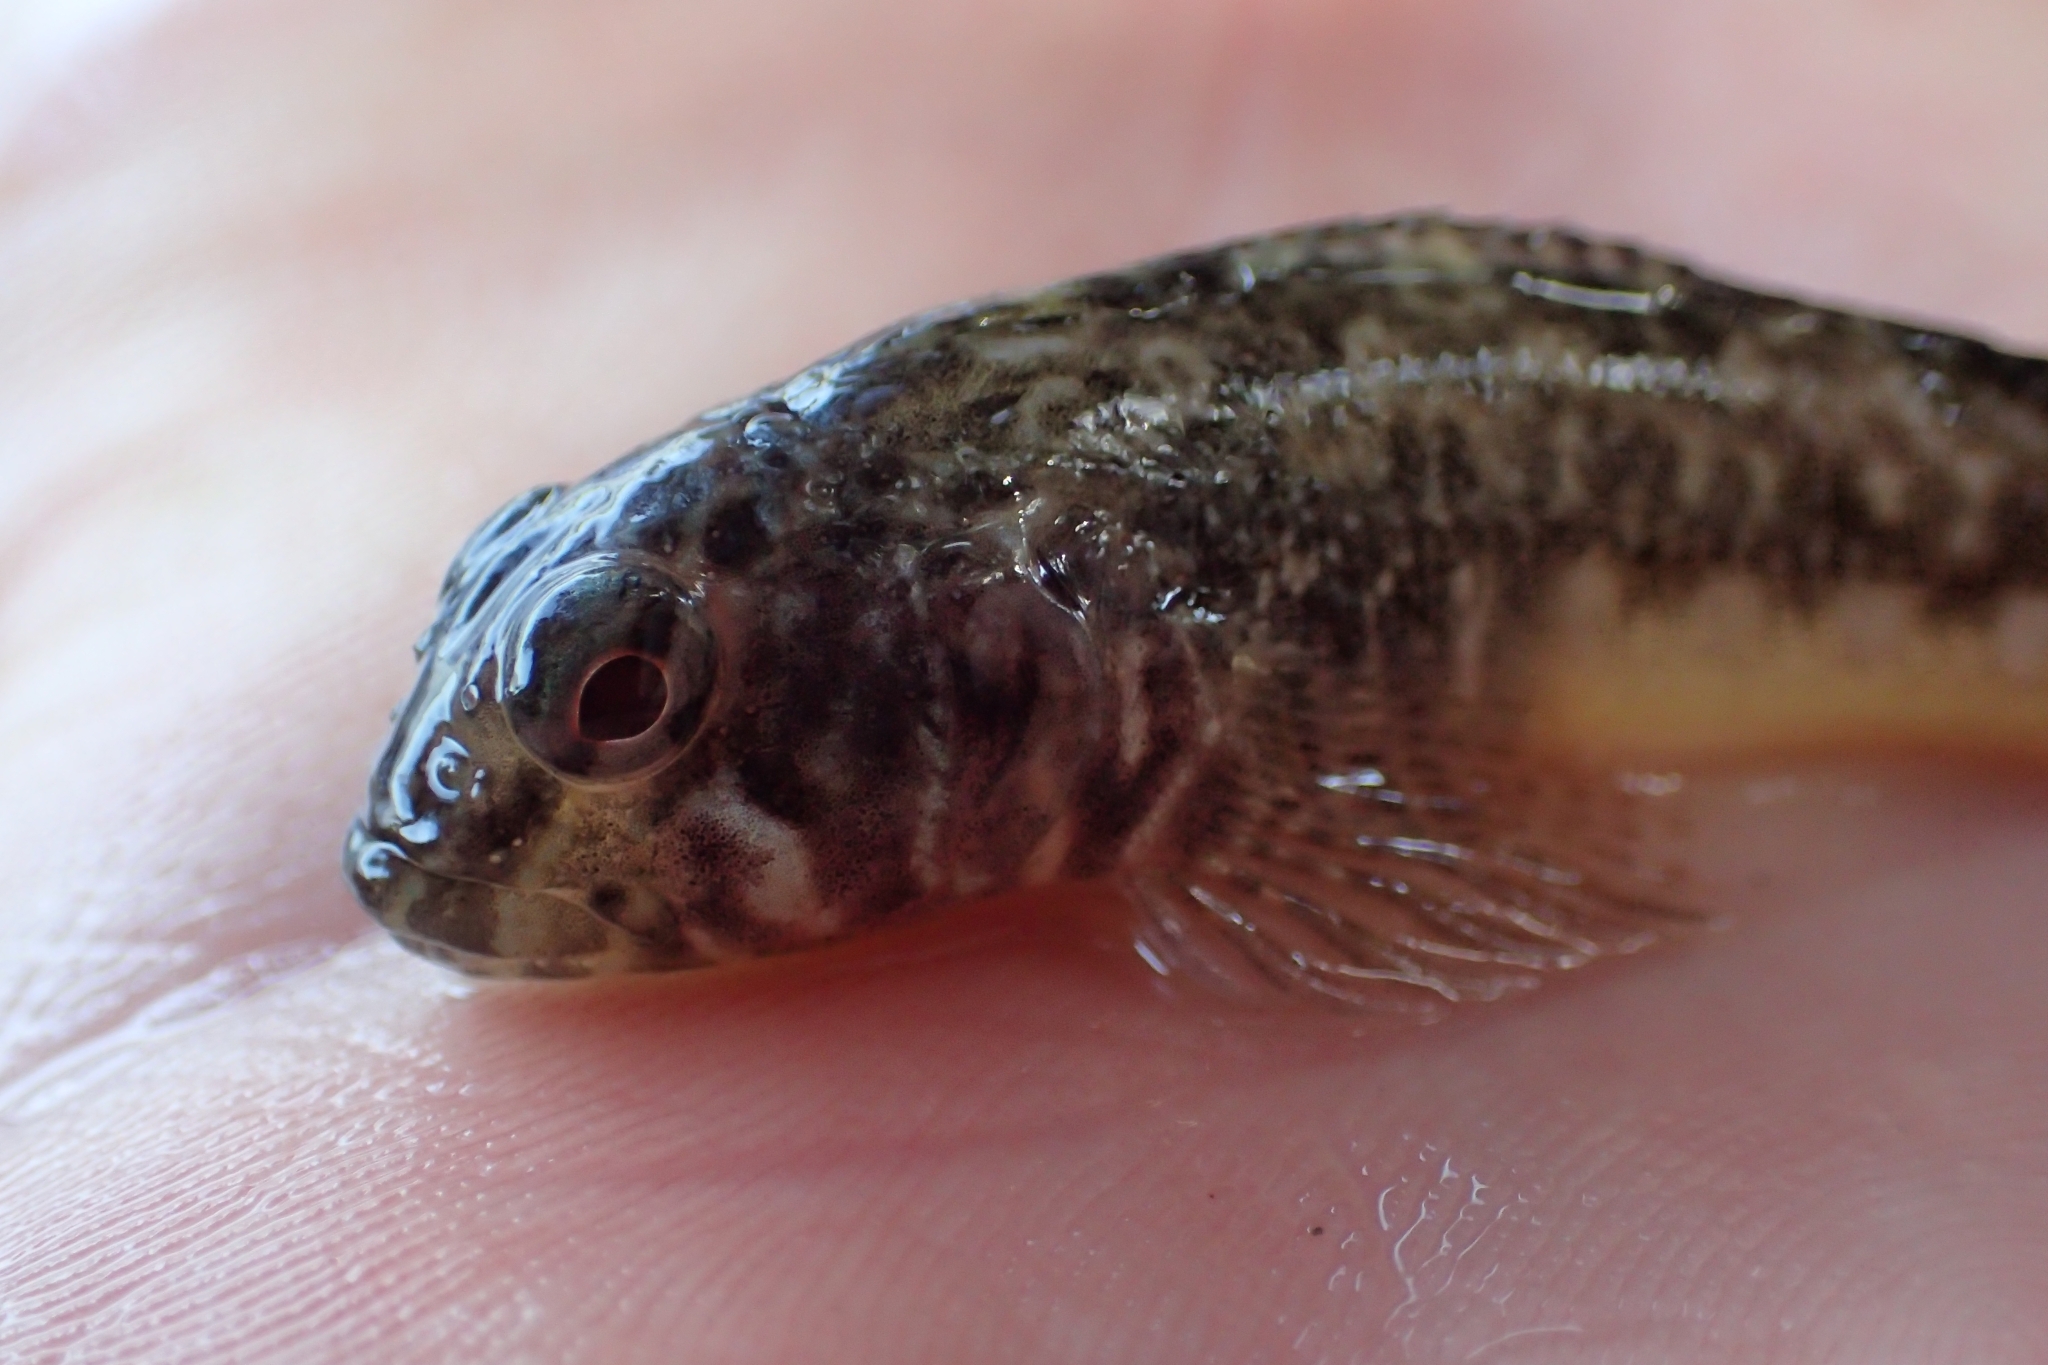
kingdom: Animalia
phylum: Chordata
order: Perciformes
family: Tripterygiidae
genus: Bellapiscis
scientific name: Bellapiscis medius
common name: Twister
